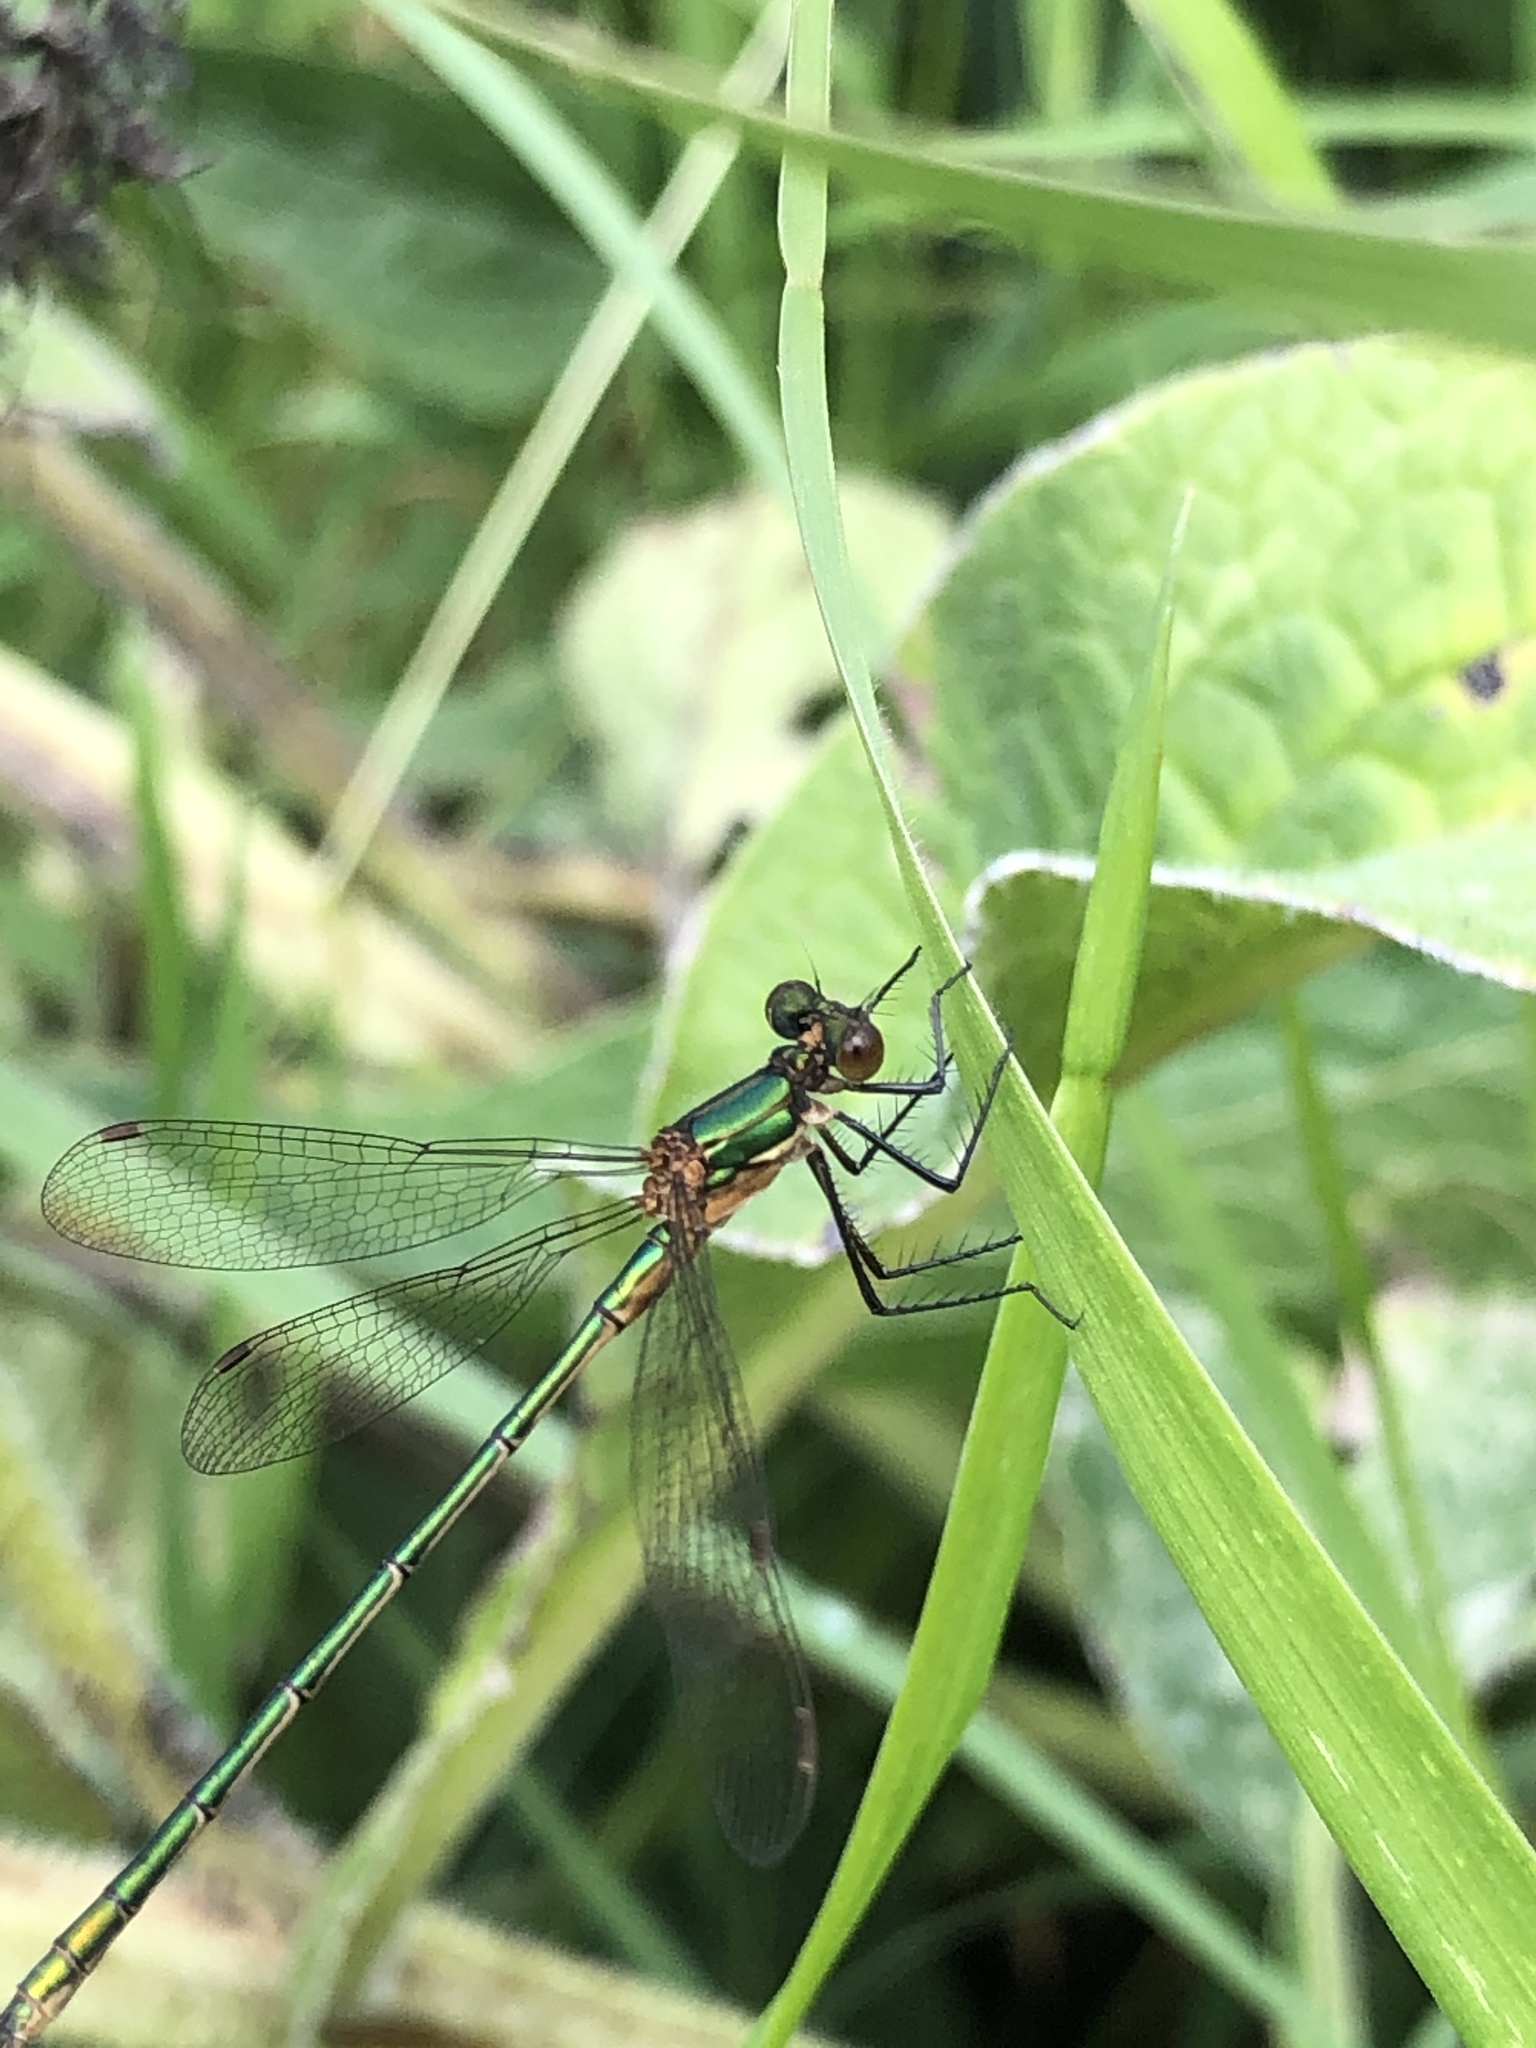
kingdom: Animalia
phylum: Arthropoda
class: Insecta
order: Odonata
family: Lestidae
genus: Lestes
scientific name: Lestes sponsa
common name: Common spreadwing
